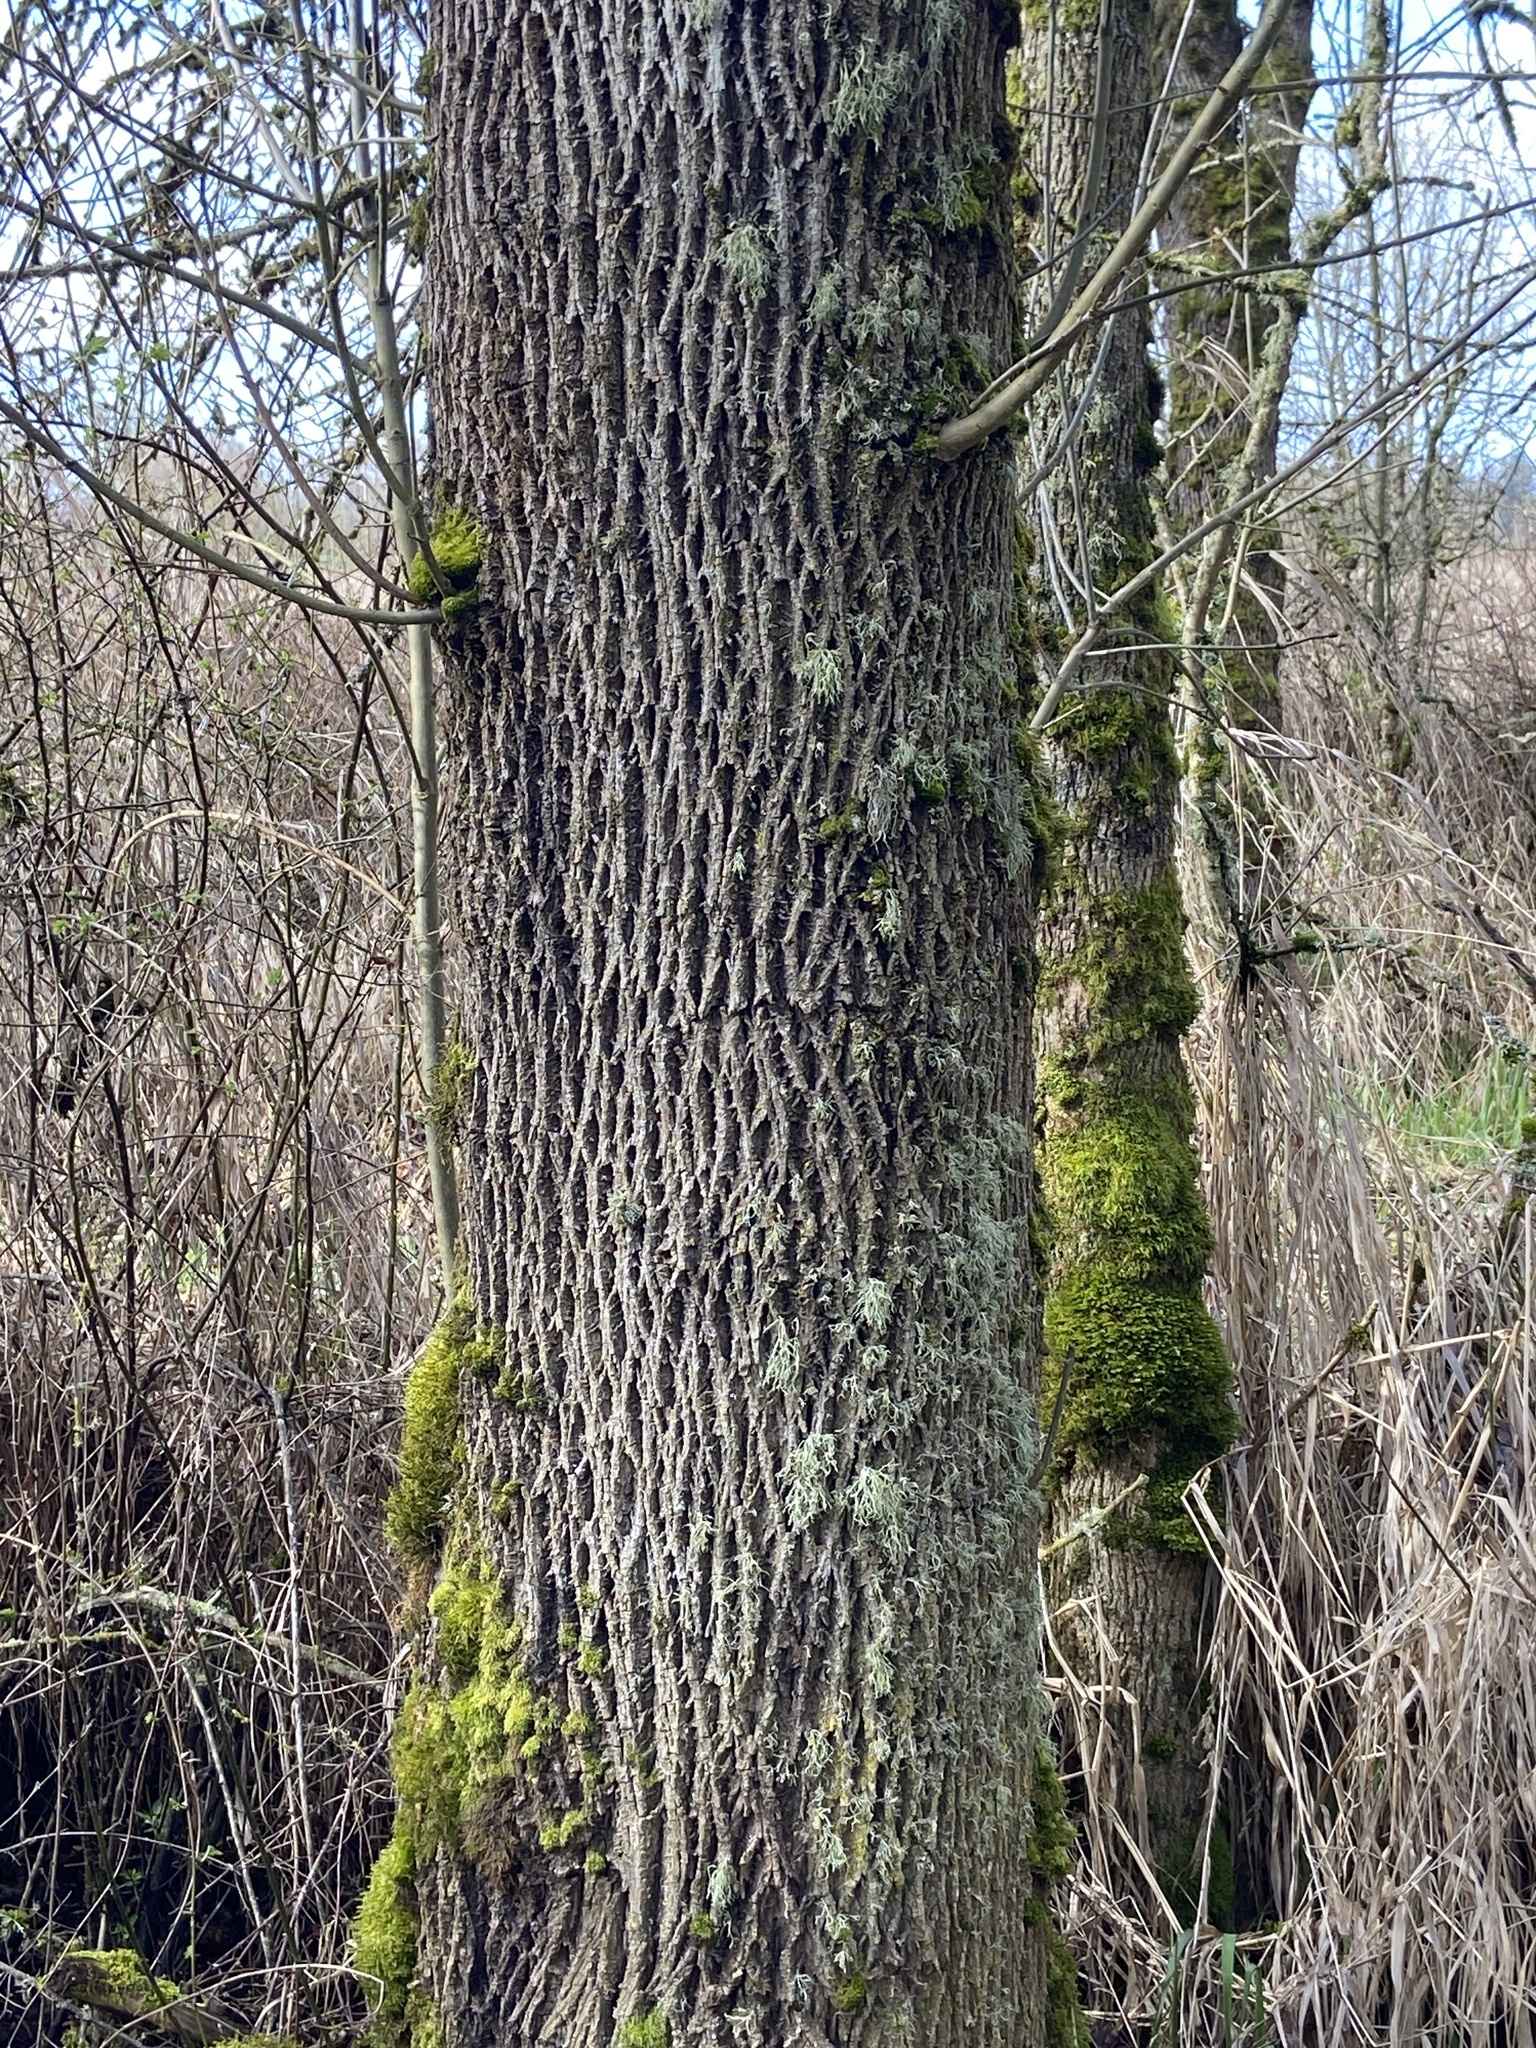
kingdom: Plantae
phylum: Tracheophyta
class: Magnoliopsida
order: Lamiales
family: Oleaceae
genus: Fraxinus
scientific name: Fraxinus latifolia
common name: Oregon ash
